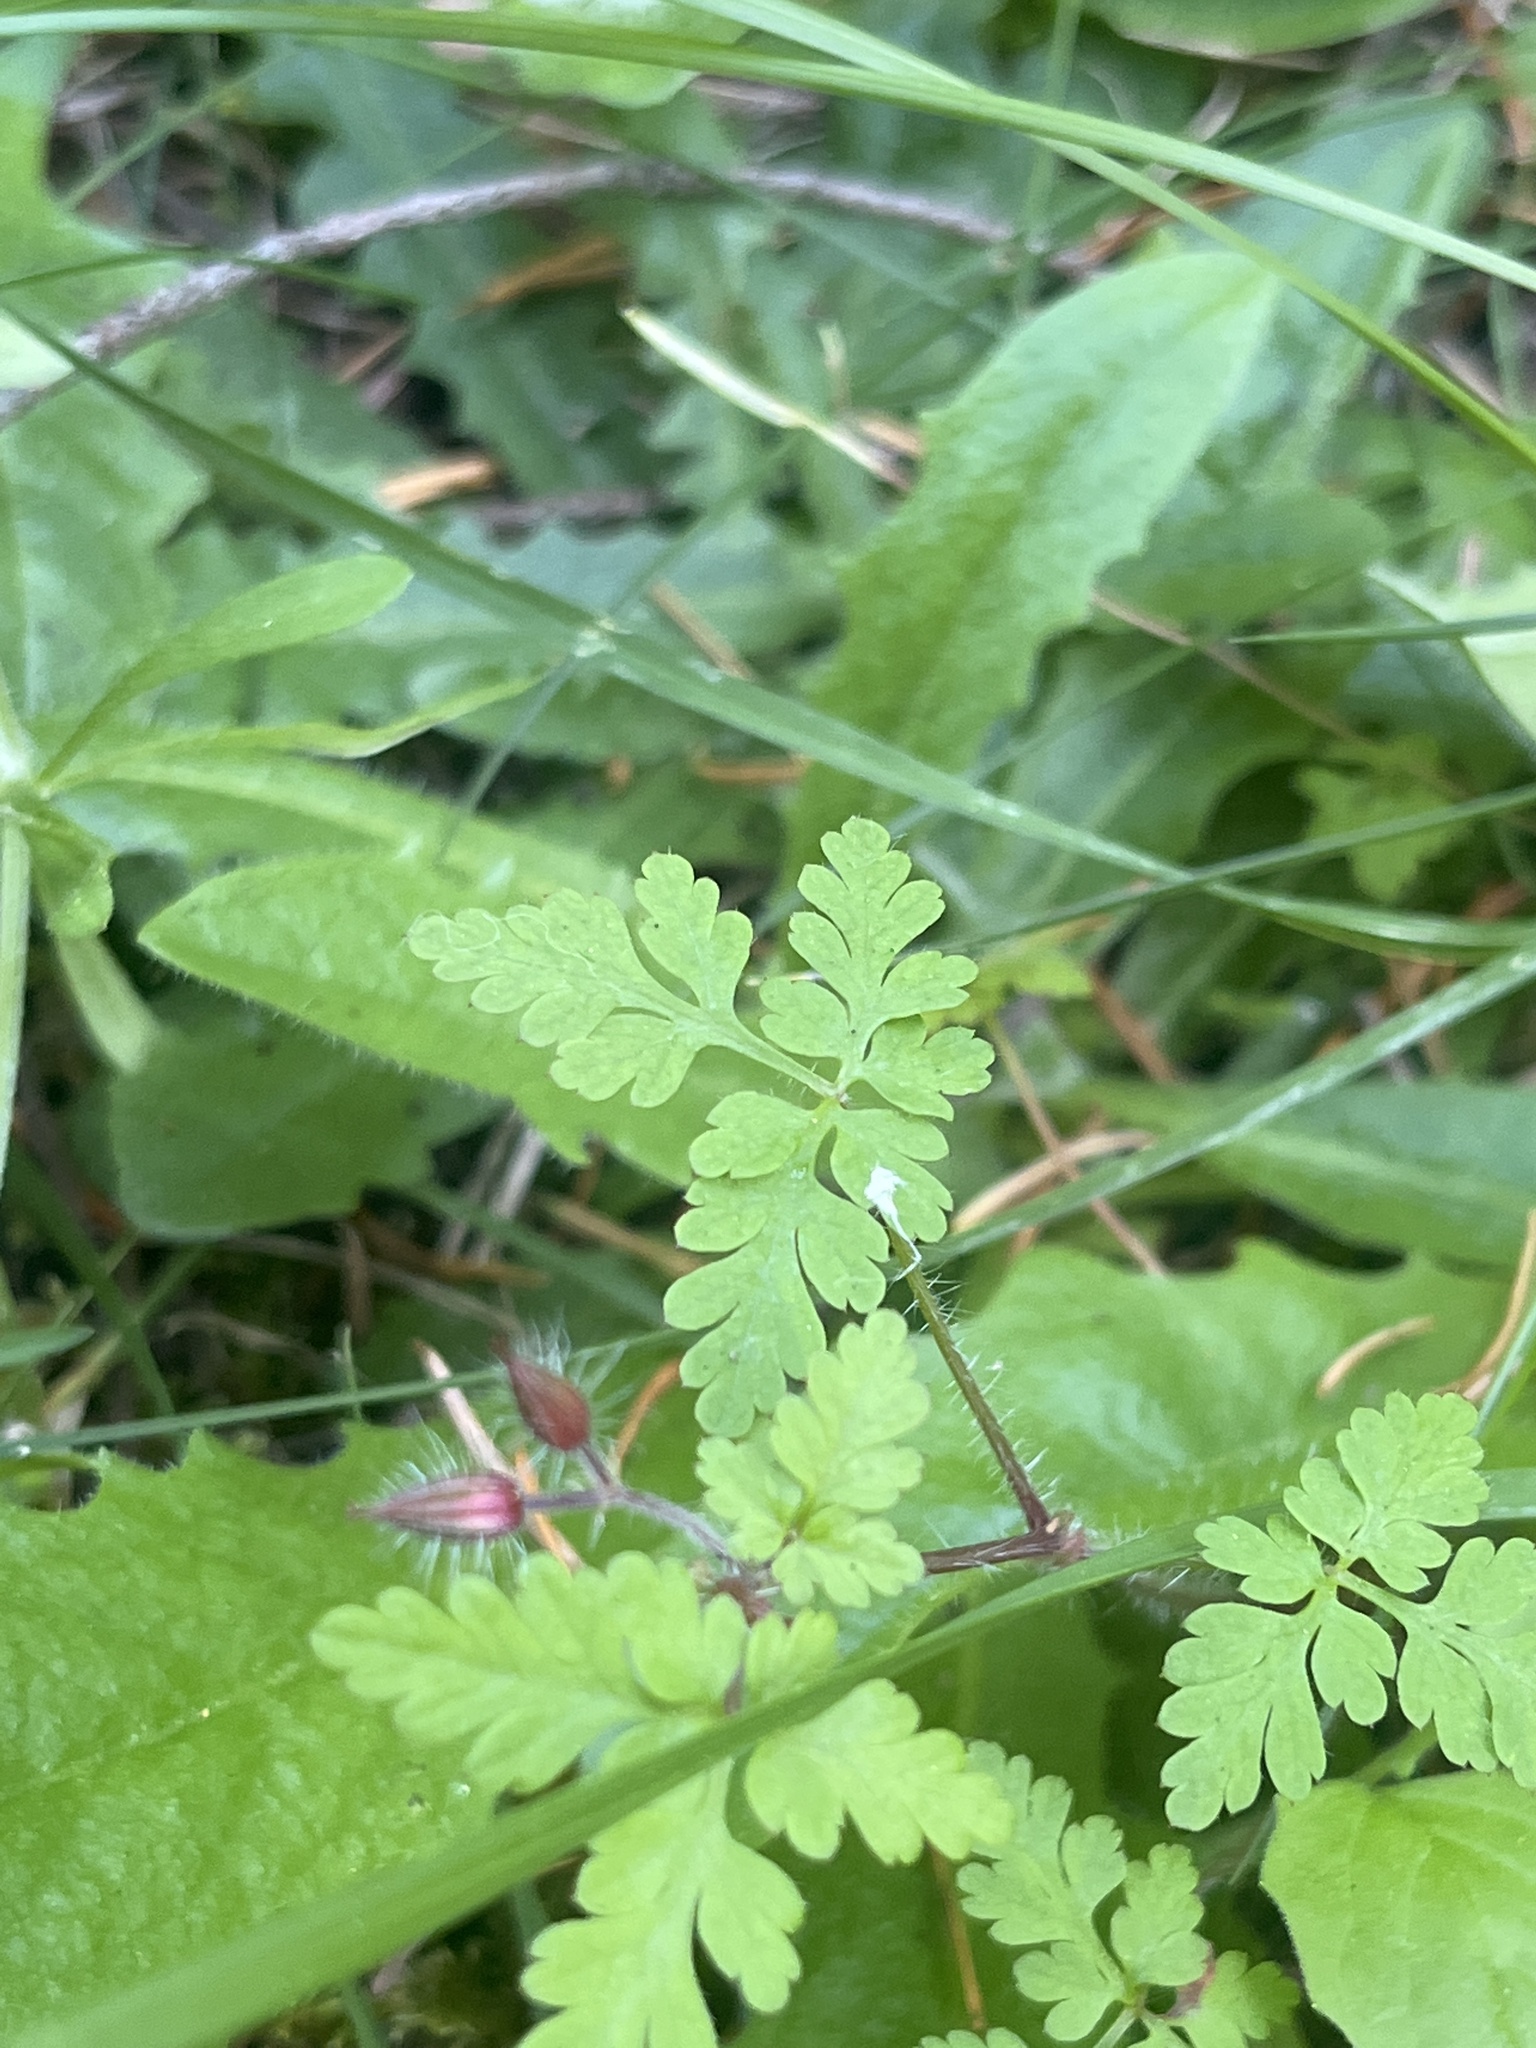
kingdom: Plantae
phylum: Tracheophyta
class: Magnoliopsida
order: Geraniales
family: Geraniaceae
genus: Geranium
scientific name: Geranium robertianum
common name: Herb-robert
